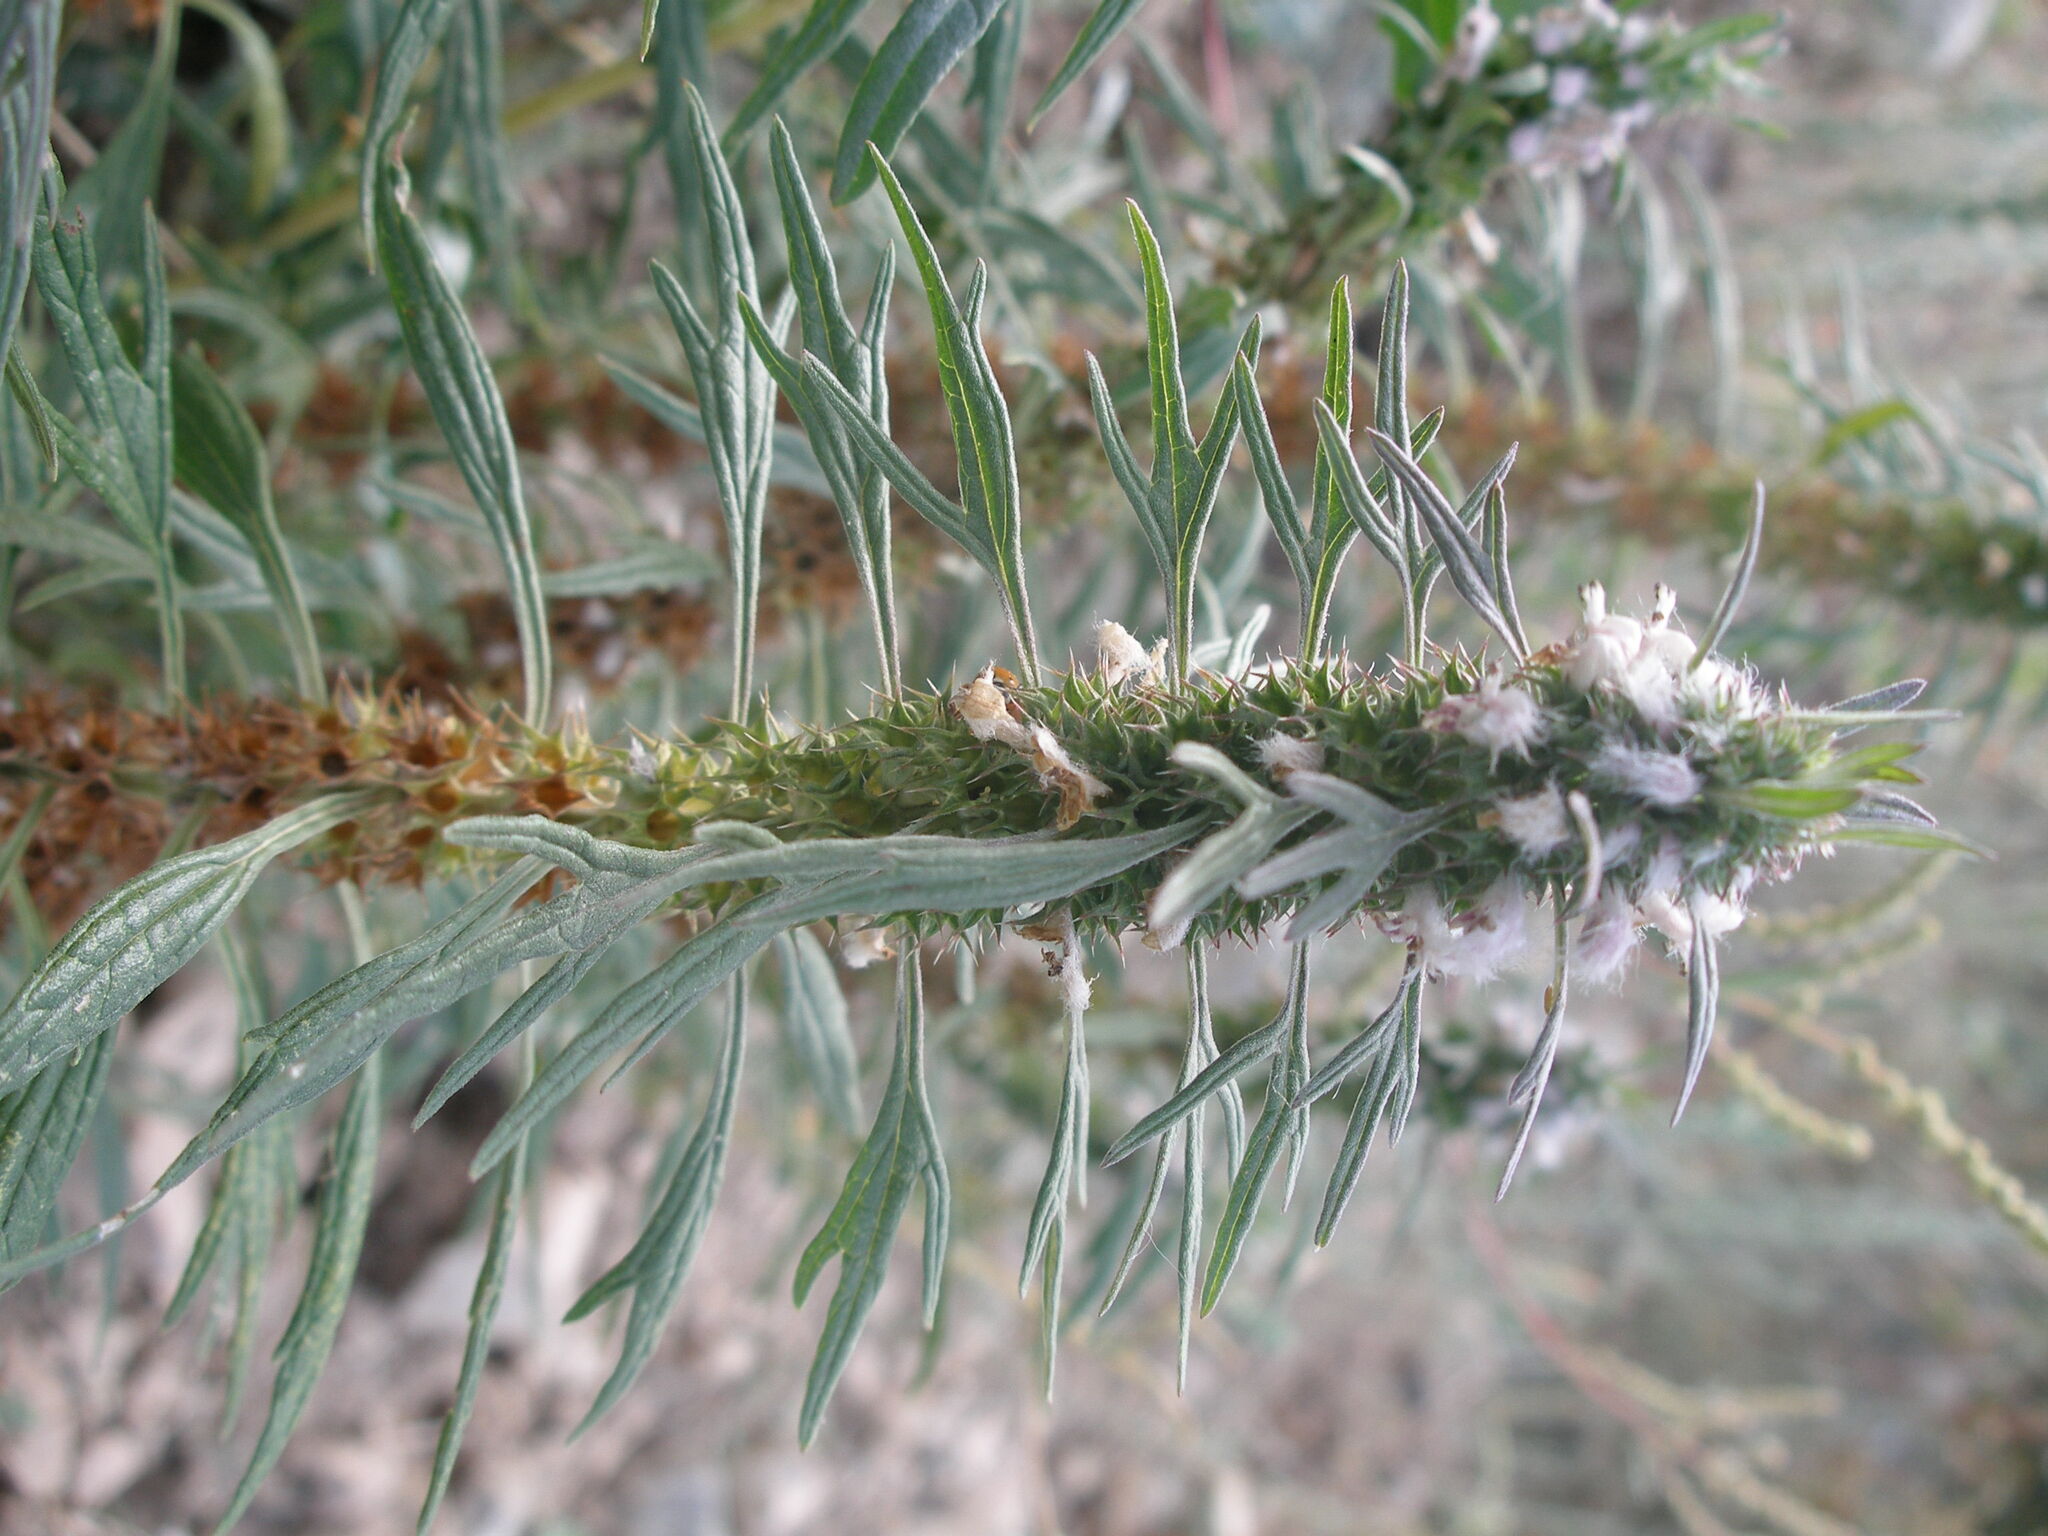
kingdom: Plantae
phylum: Tracheophyta
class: Magnoliopsida
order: Lamiales
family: Lamiaceae
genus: Leonurus
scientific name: Leonurus glaucescens
